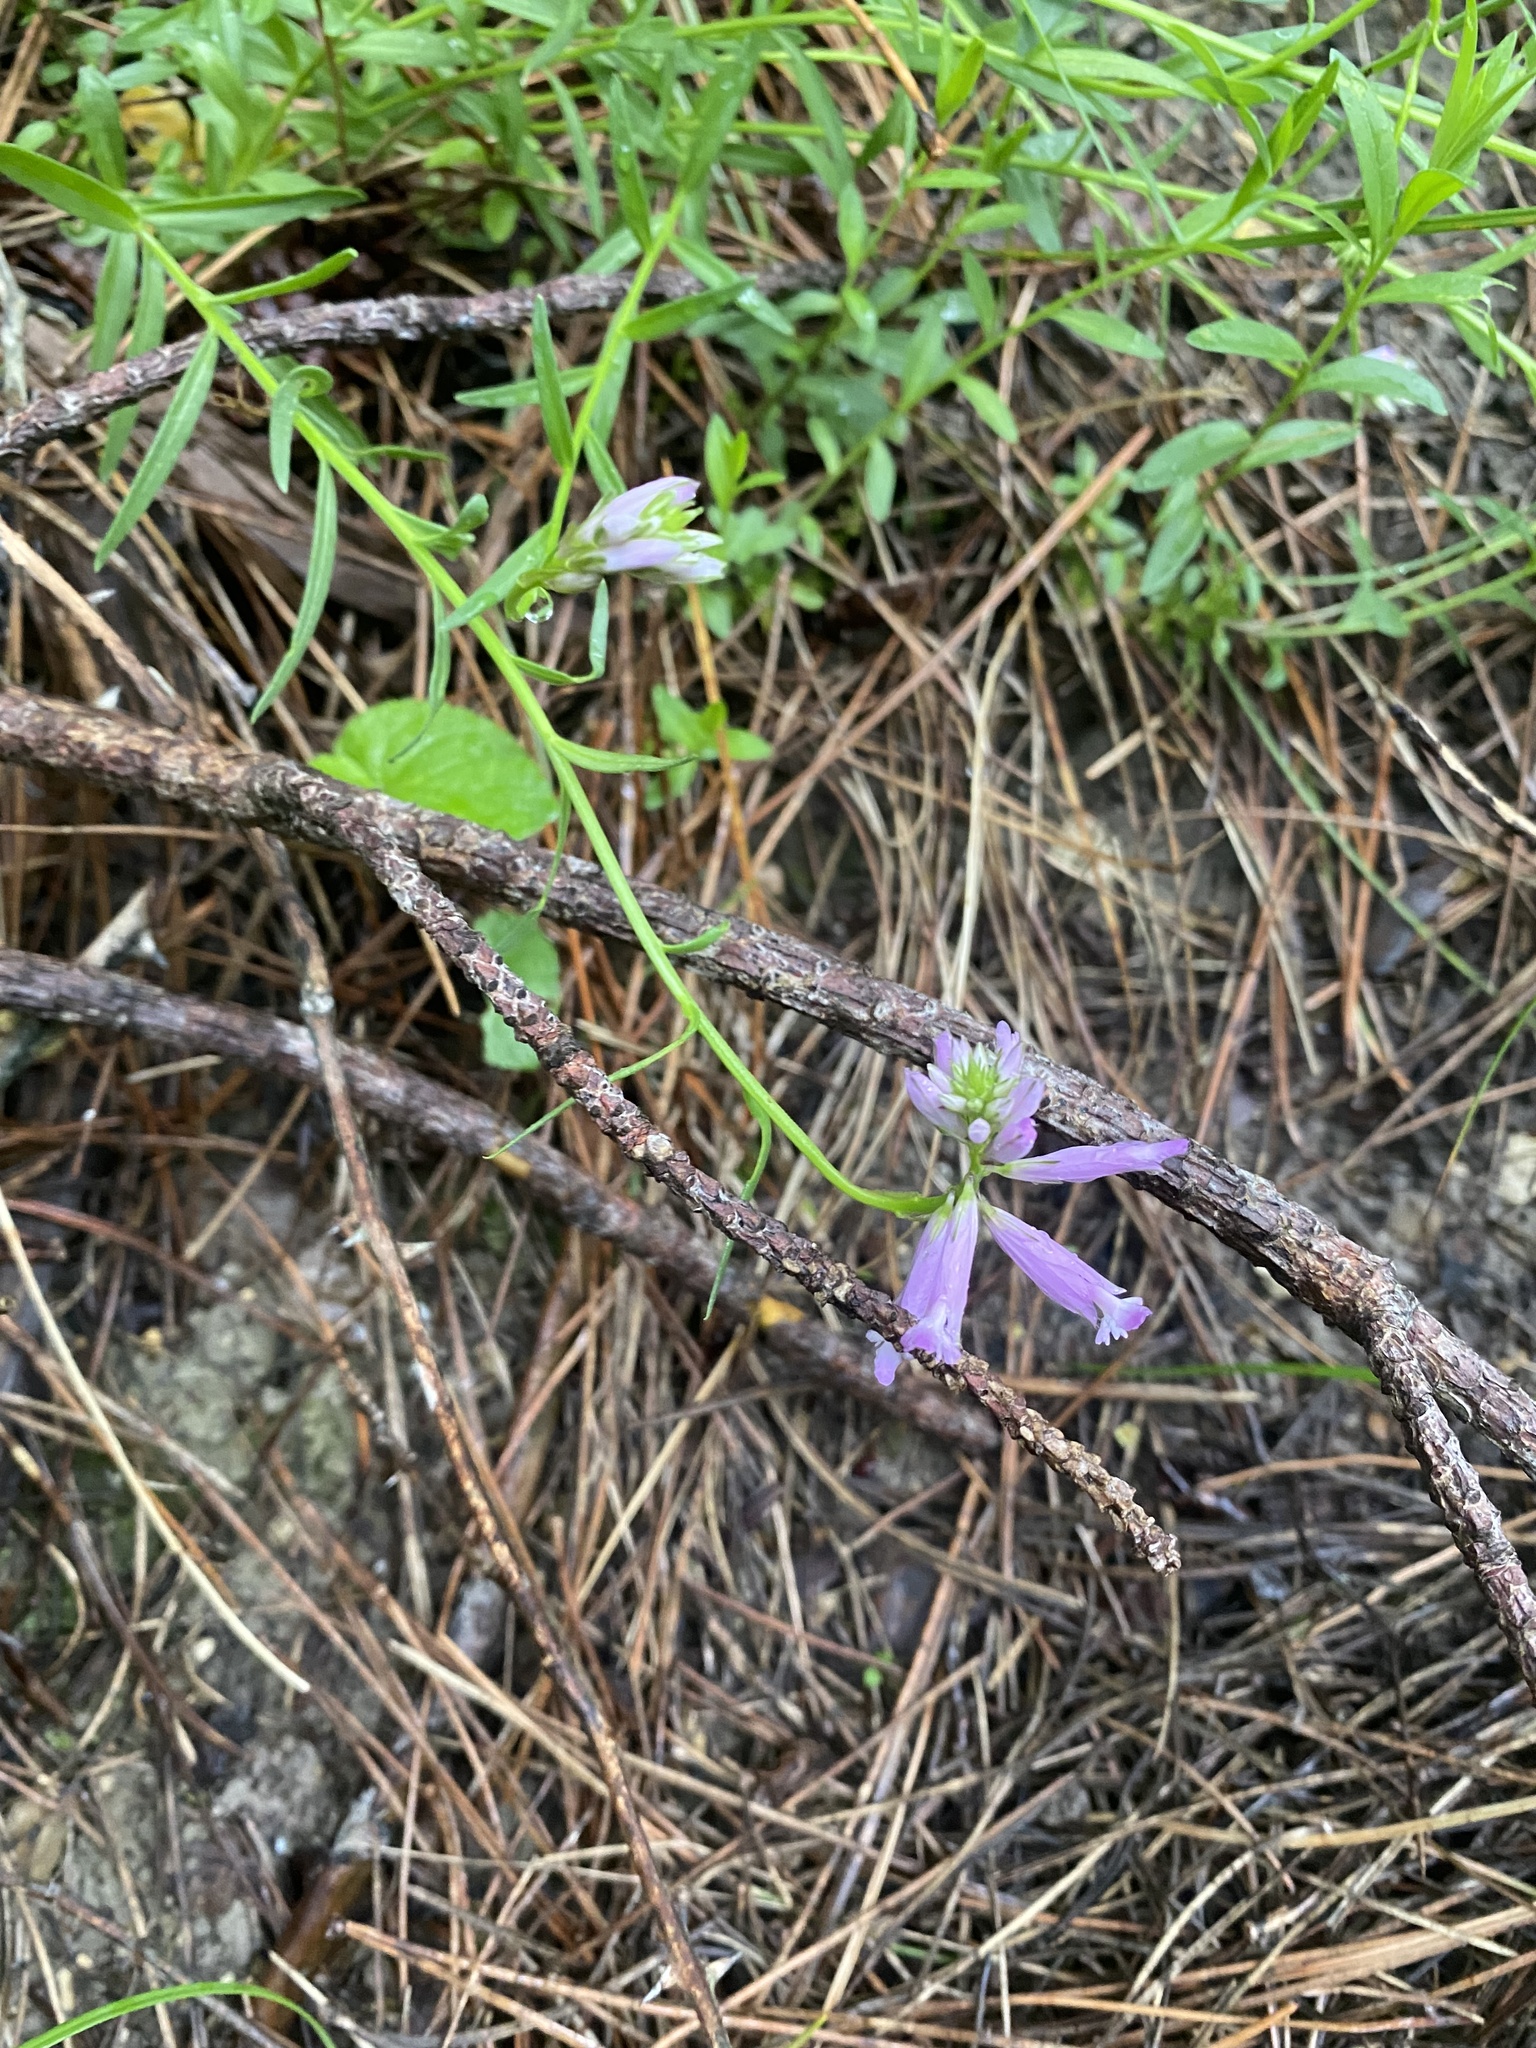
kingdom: Plantae
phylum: Tracheophyta
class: Magnoliopsida
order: Fabales
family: Polygalaceae
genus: Polygala
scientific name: Polygala major
